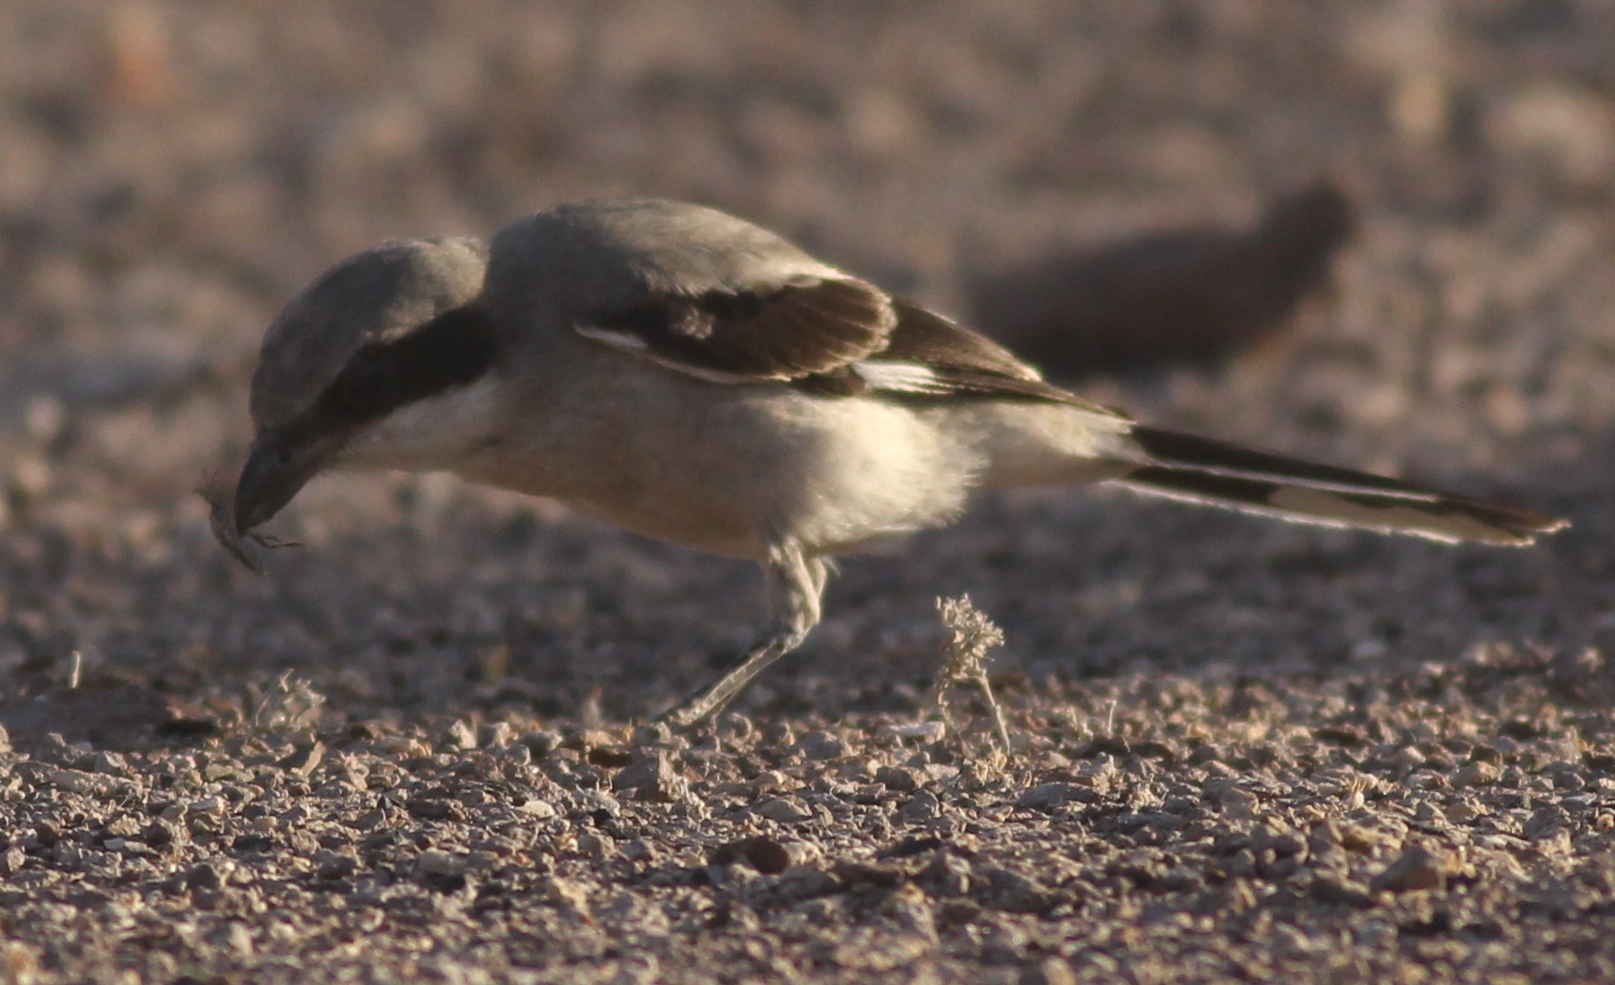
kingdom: Animalia
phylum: Chordata
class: Aves
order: Passeriformes
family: Laniidae
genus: Lanius
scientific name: Lanius ludovicianus
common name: Loggerhead shrike
